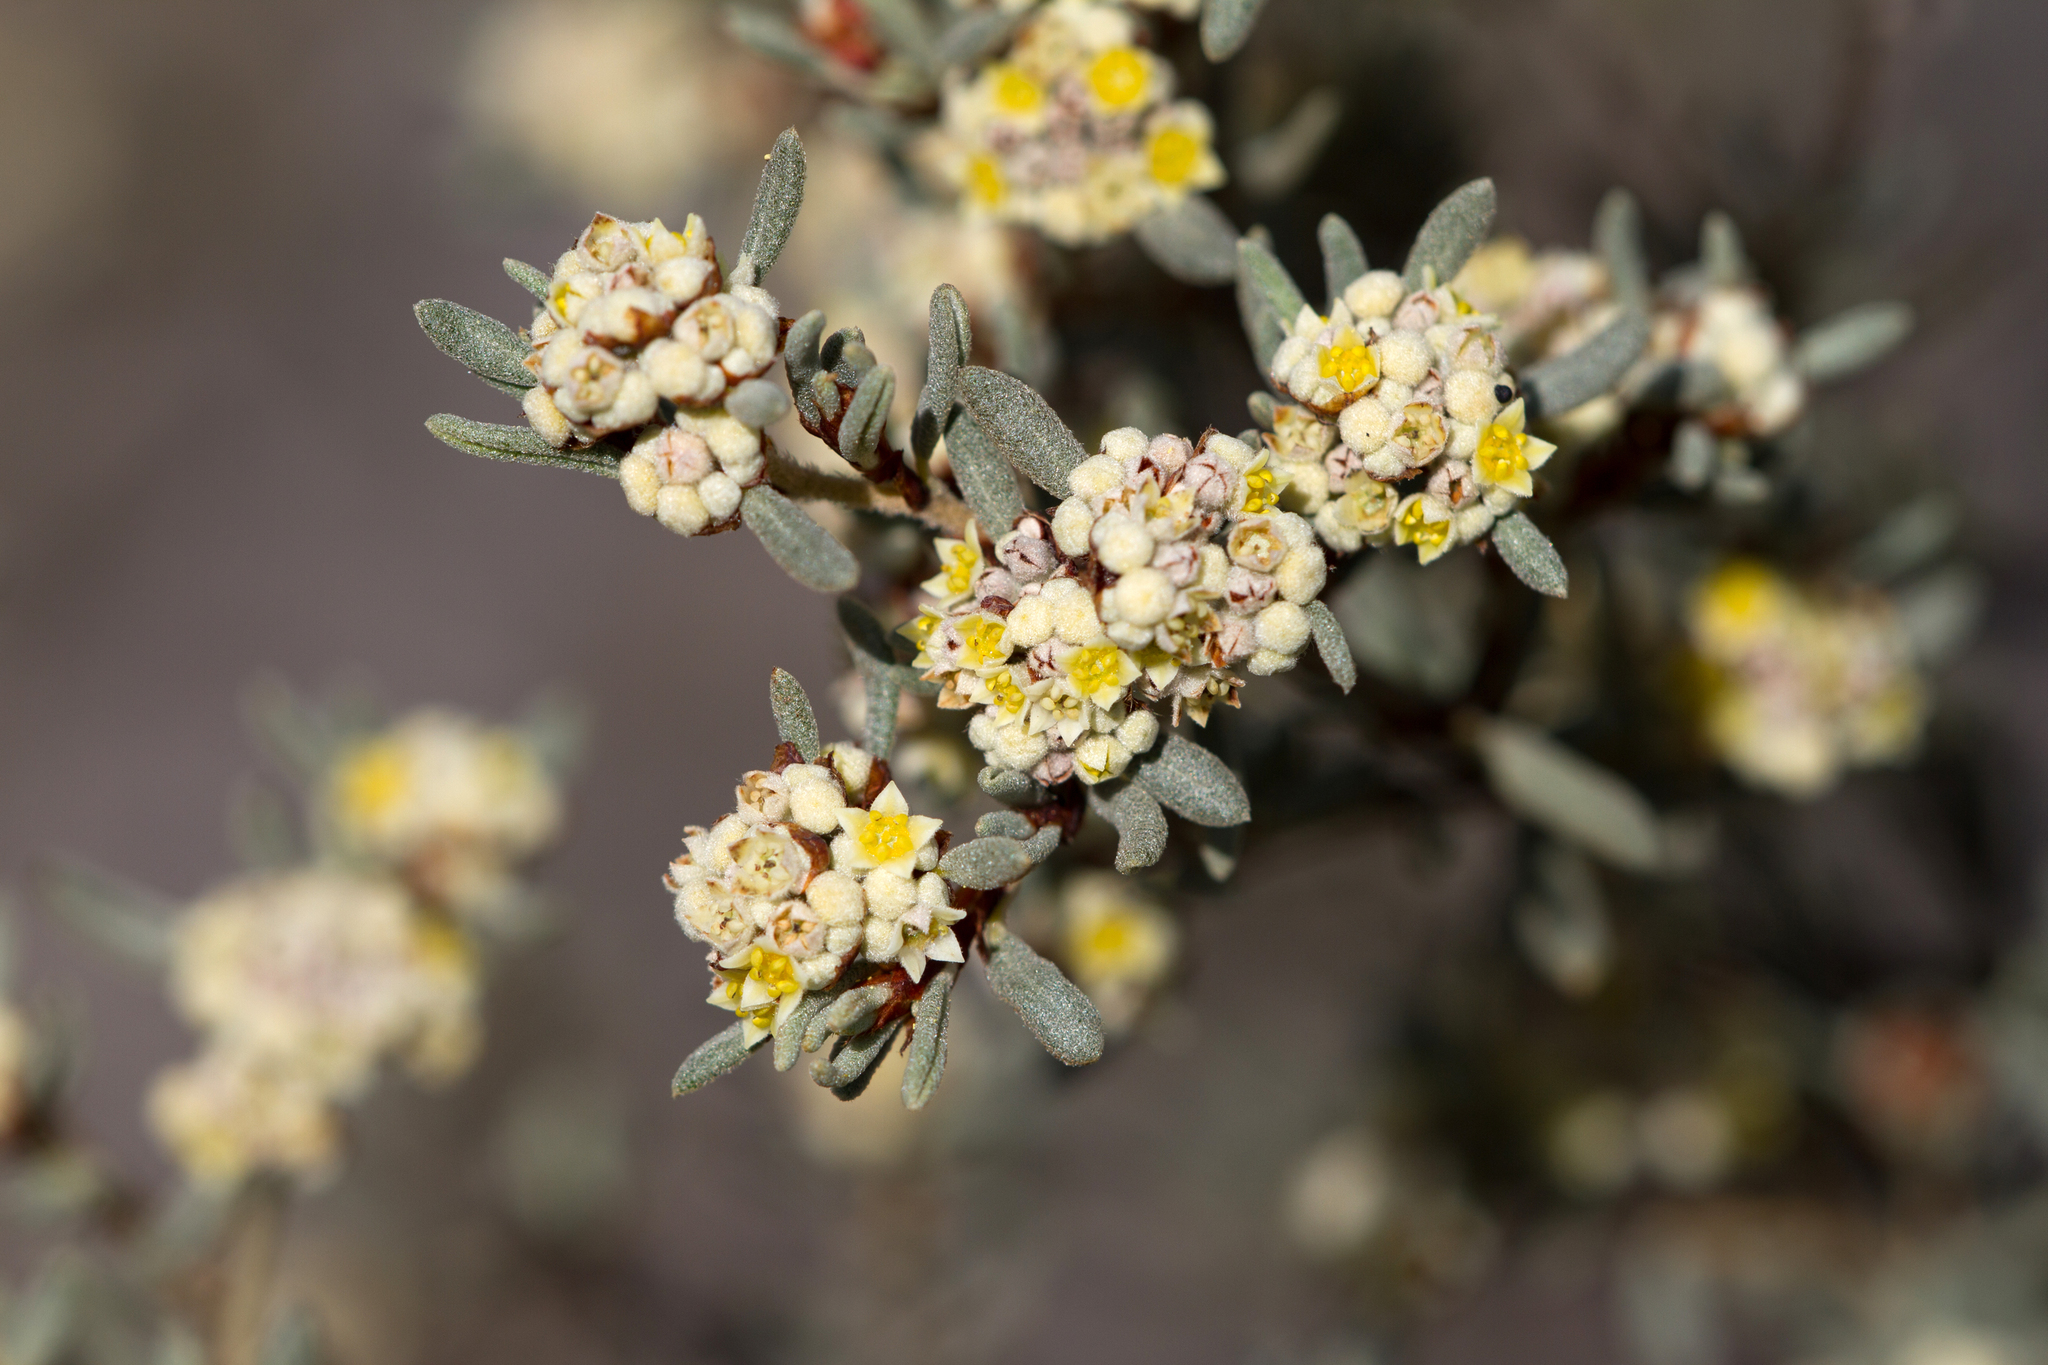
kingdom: Plantae
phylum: Tracheophyta
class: Magnoliopsida
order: Rosales
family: Rhamnaceae
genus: Spyridium
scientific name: Spyridium subochreatum
